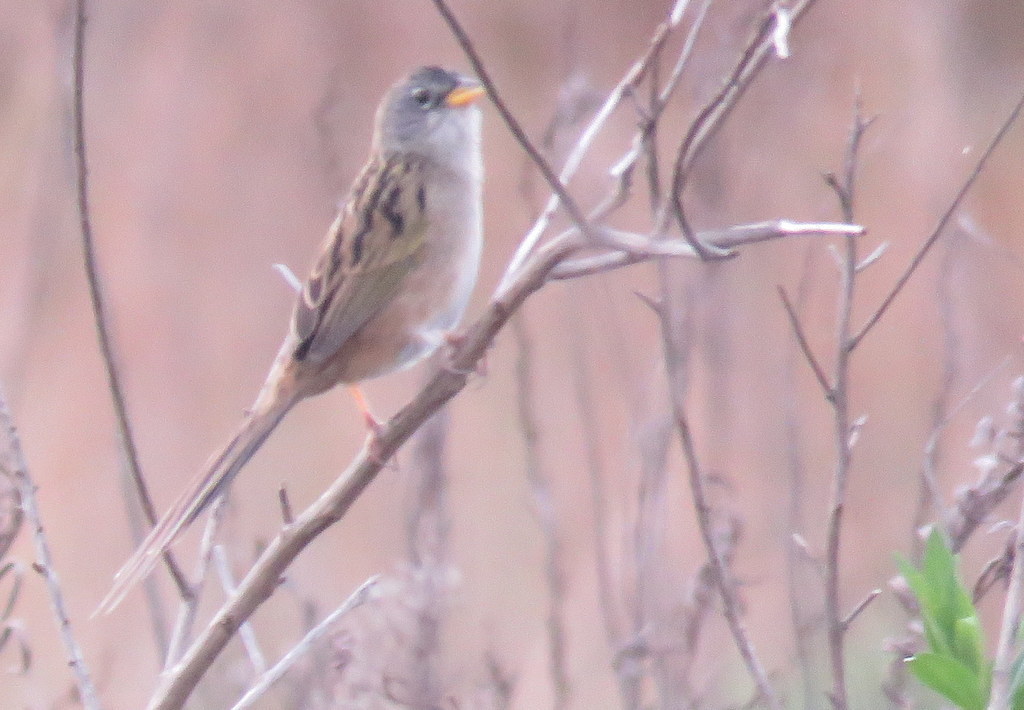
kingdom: Animalia
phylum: Chordata
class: Aves
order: Passeriformes
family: Thraupidae
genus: Emberizoides
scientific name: Emberizoides ypiranganus
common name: Lesser grass finch
